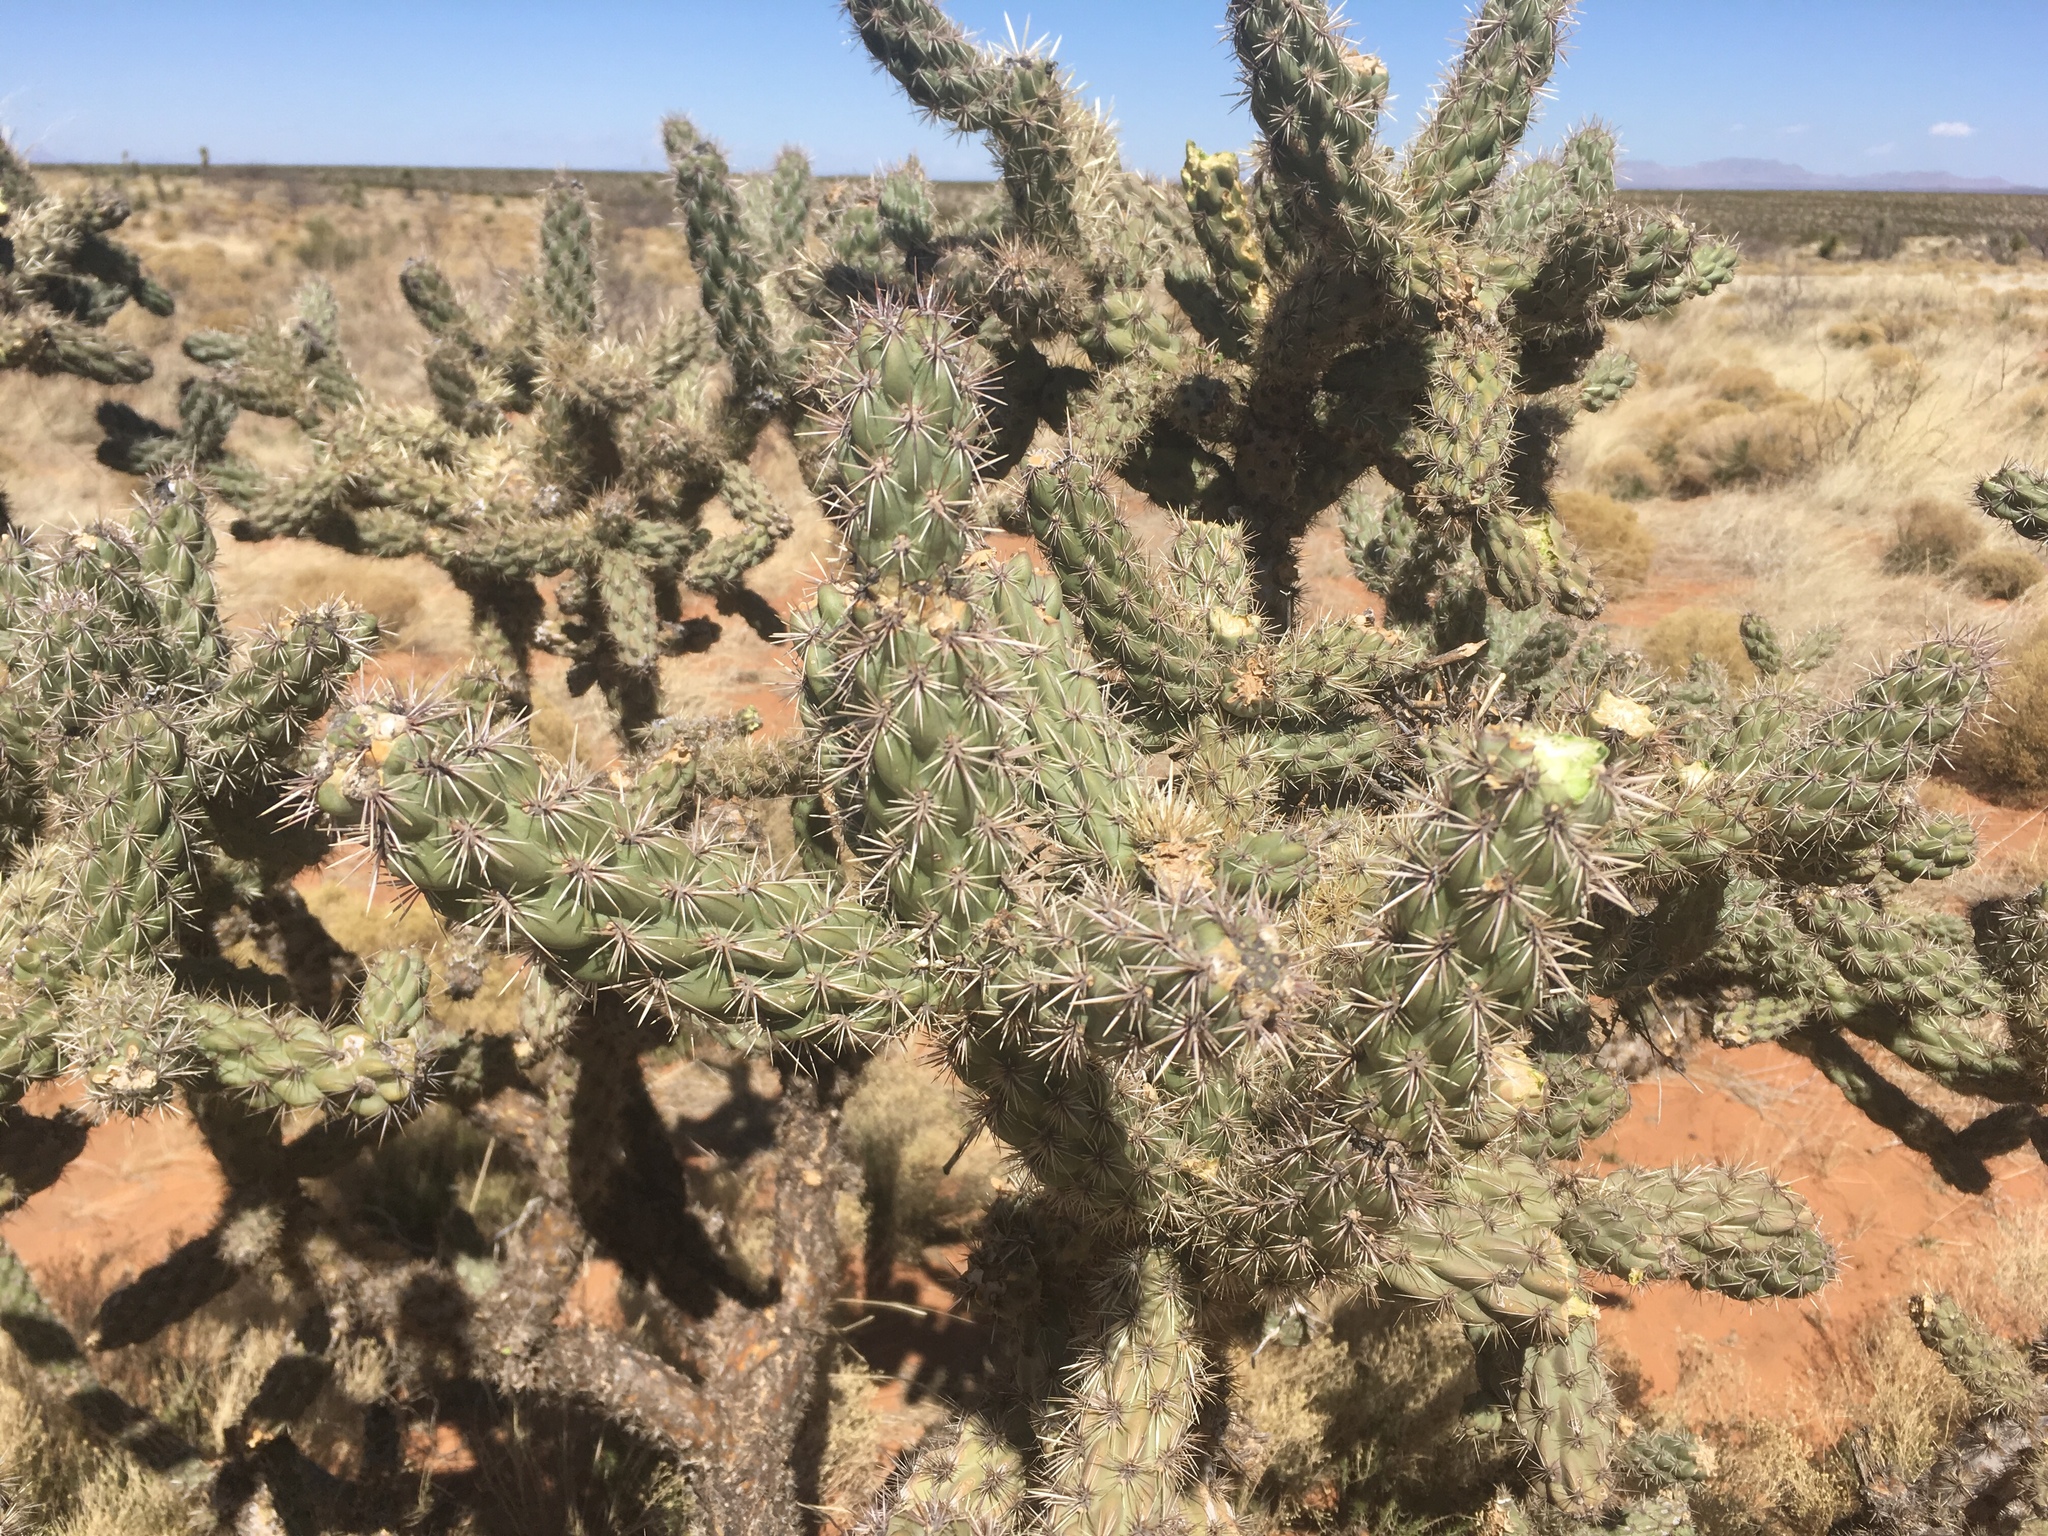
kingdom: Plantae
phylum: Tracheophyta
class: Magnoliopsida
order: Caryophyllales
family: Cactaceae
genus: Cylindropuntia
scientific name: Cylindropuntia imbricata
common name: Candelabrum cactus
